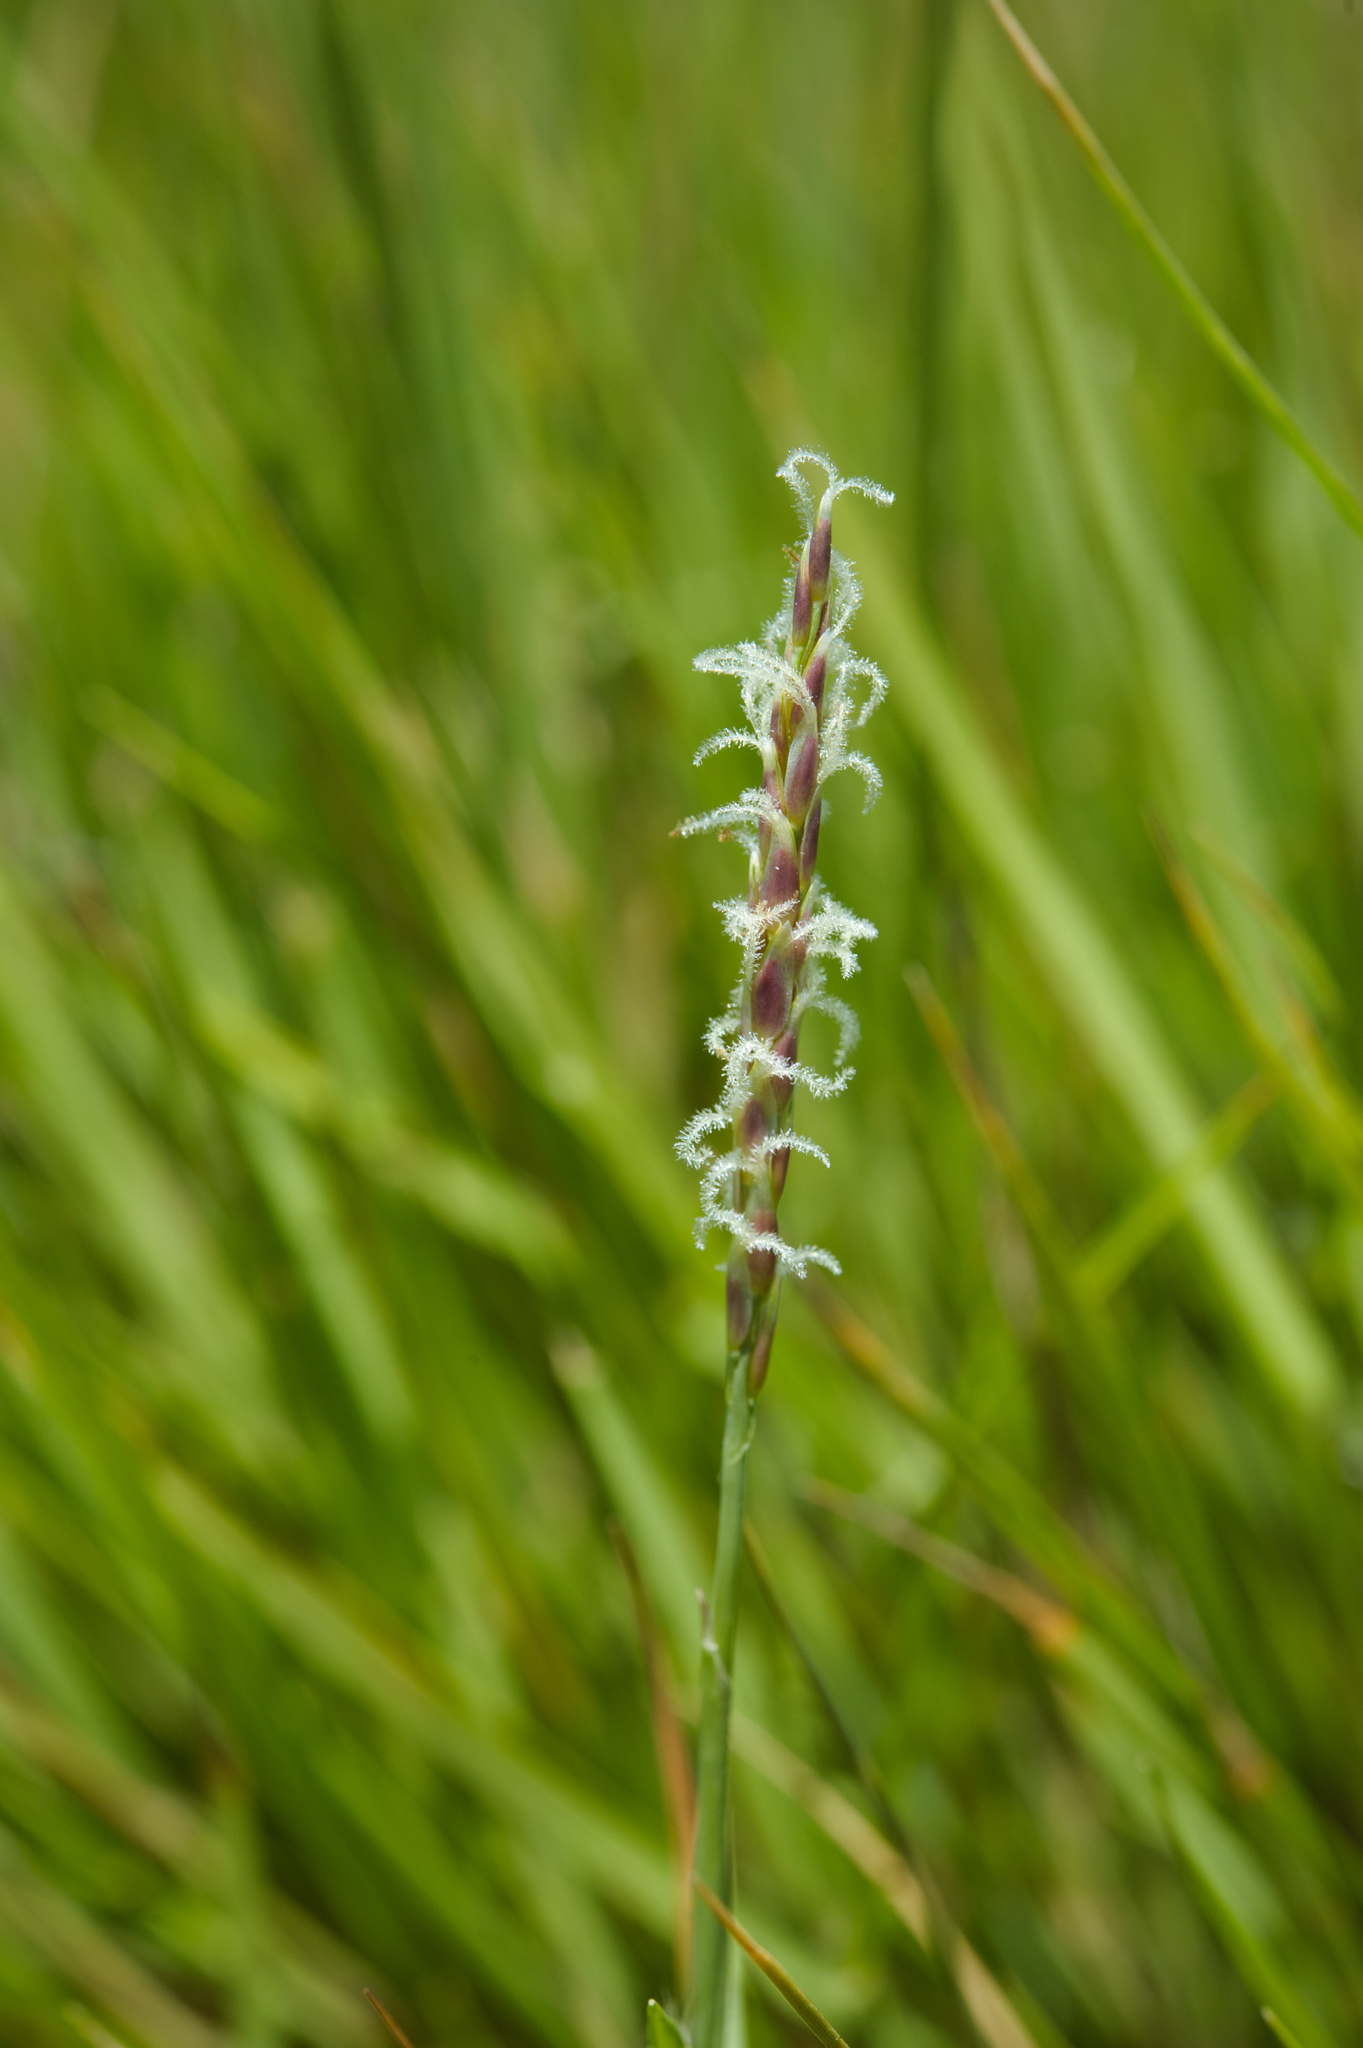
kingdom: Plantae
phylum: Tracheophyta
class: Liliopsida
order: Poales
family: Poaceae
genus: Zoysia
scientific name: Zoysia matrella
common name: Manila grass
